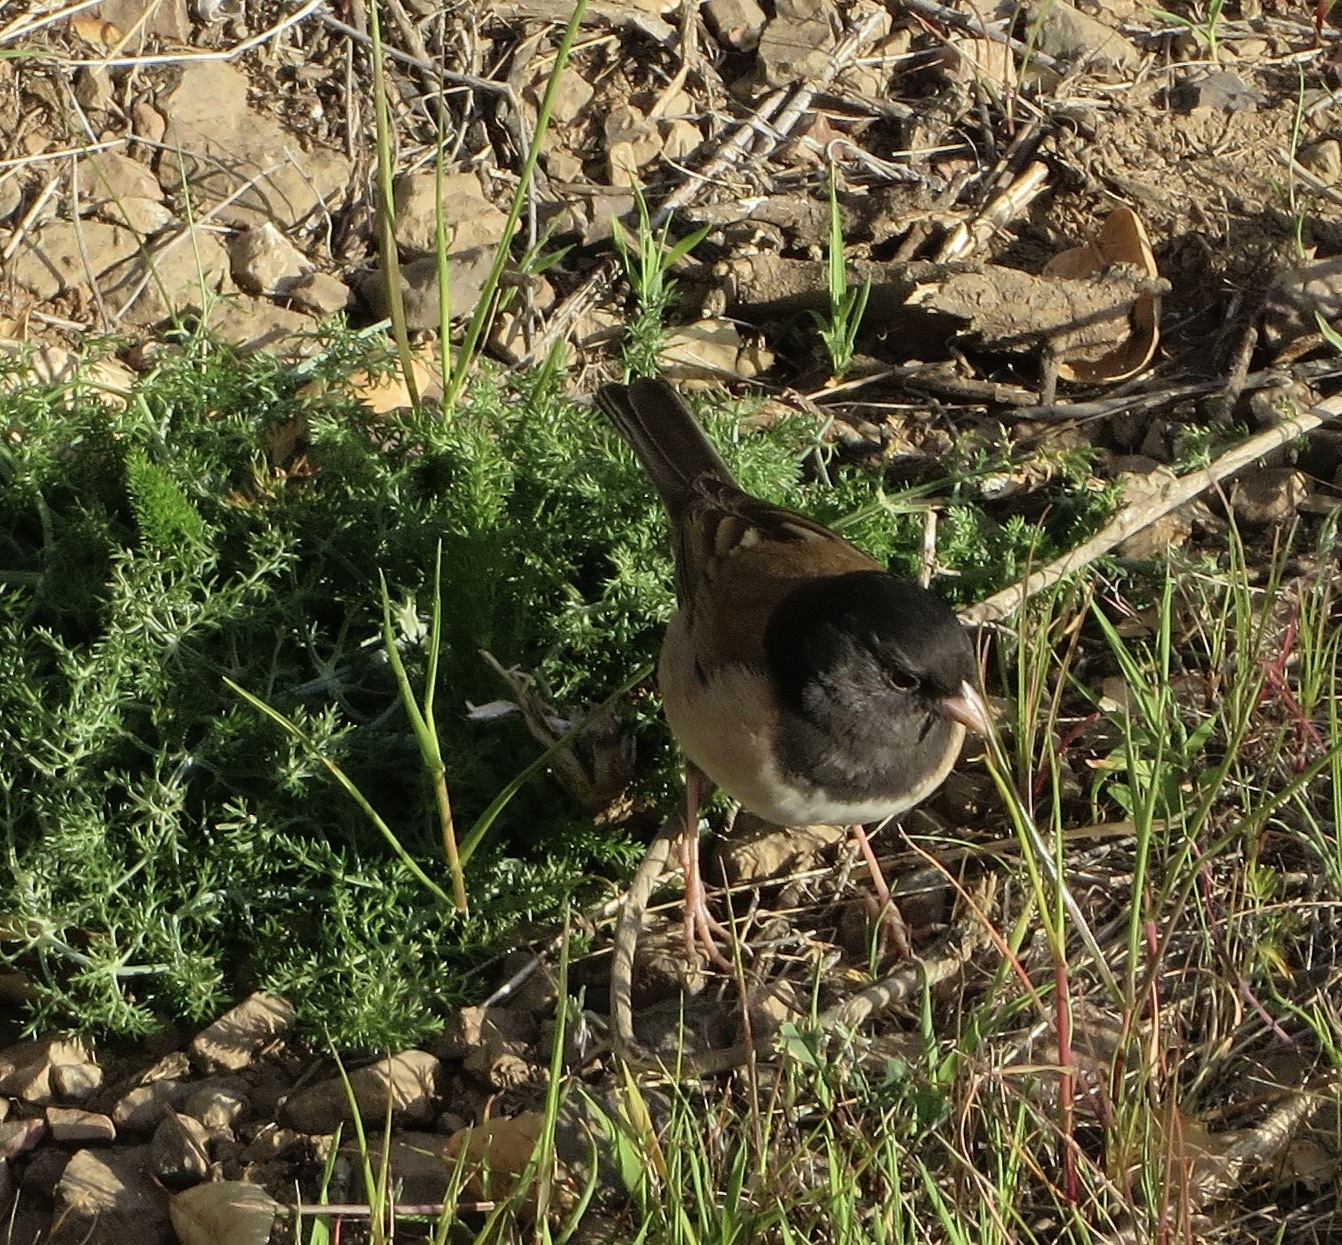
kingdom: Animalia
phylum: Chordata
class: Aves
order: Passeriformes
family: Passerellidae
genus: Junco
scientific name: Junco hyemalis
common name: Dark-eyed junco
